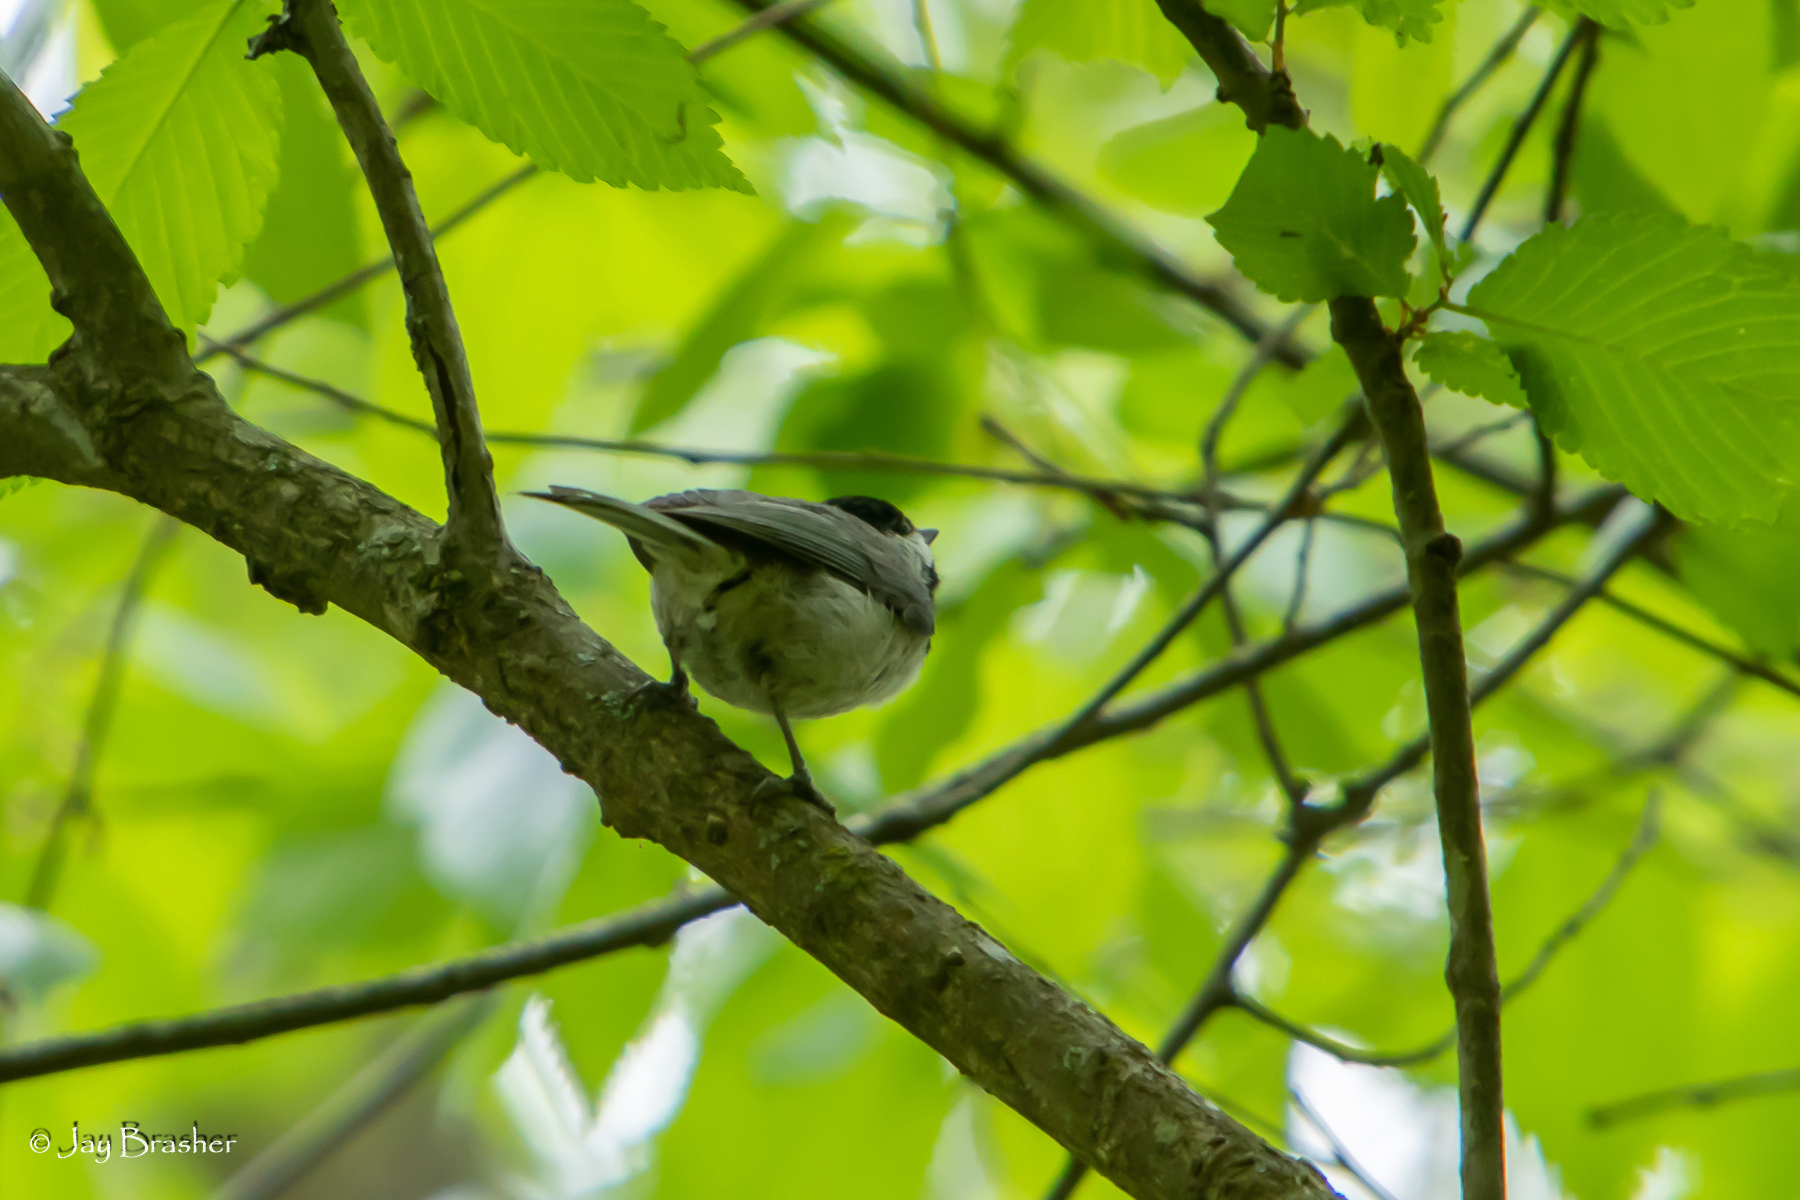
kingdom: Animalia
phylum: Chordata
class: Aves
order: Passeriformes
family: Paridae
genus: Poecile
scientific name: Poecile carolinensis
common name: Carolina chickadee
